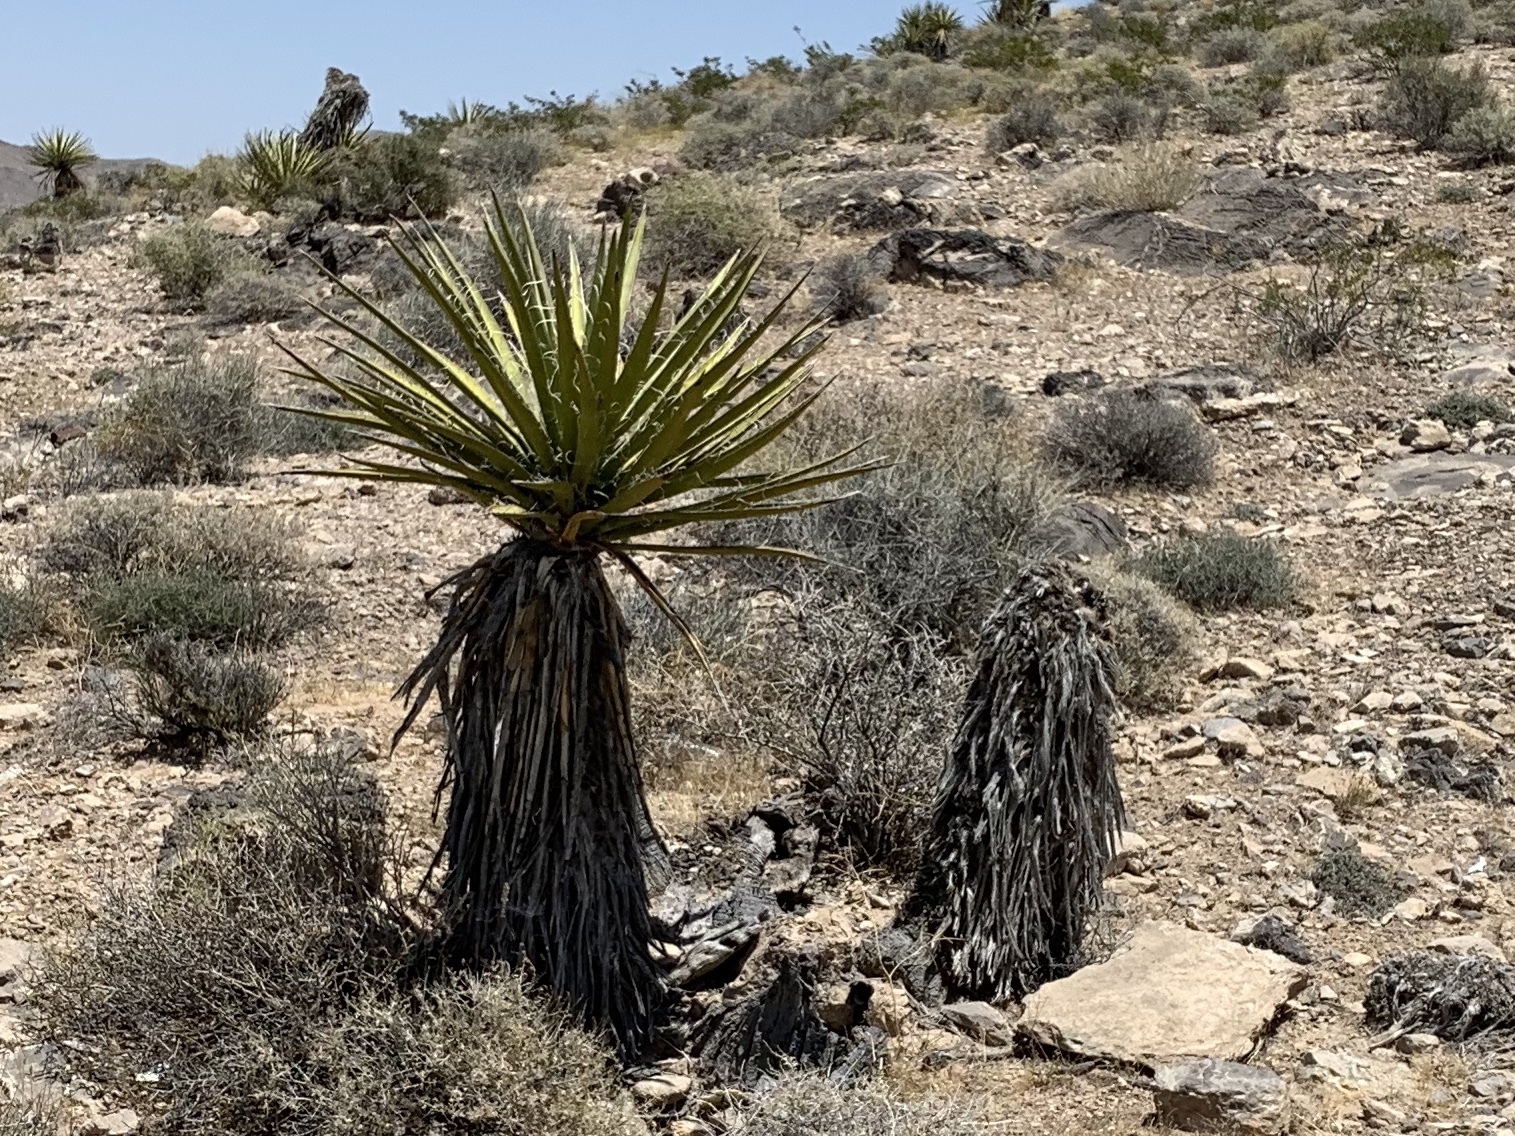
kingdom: Plantae
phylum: Tracheophyta
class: Liliopsida
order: Asparagales
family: Asparagaceae
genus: Yucca
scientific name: Yucca schidigera
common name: Mojave yucca
